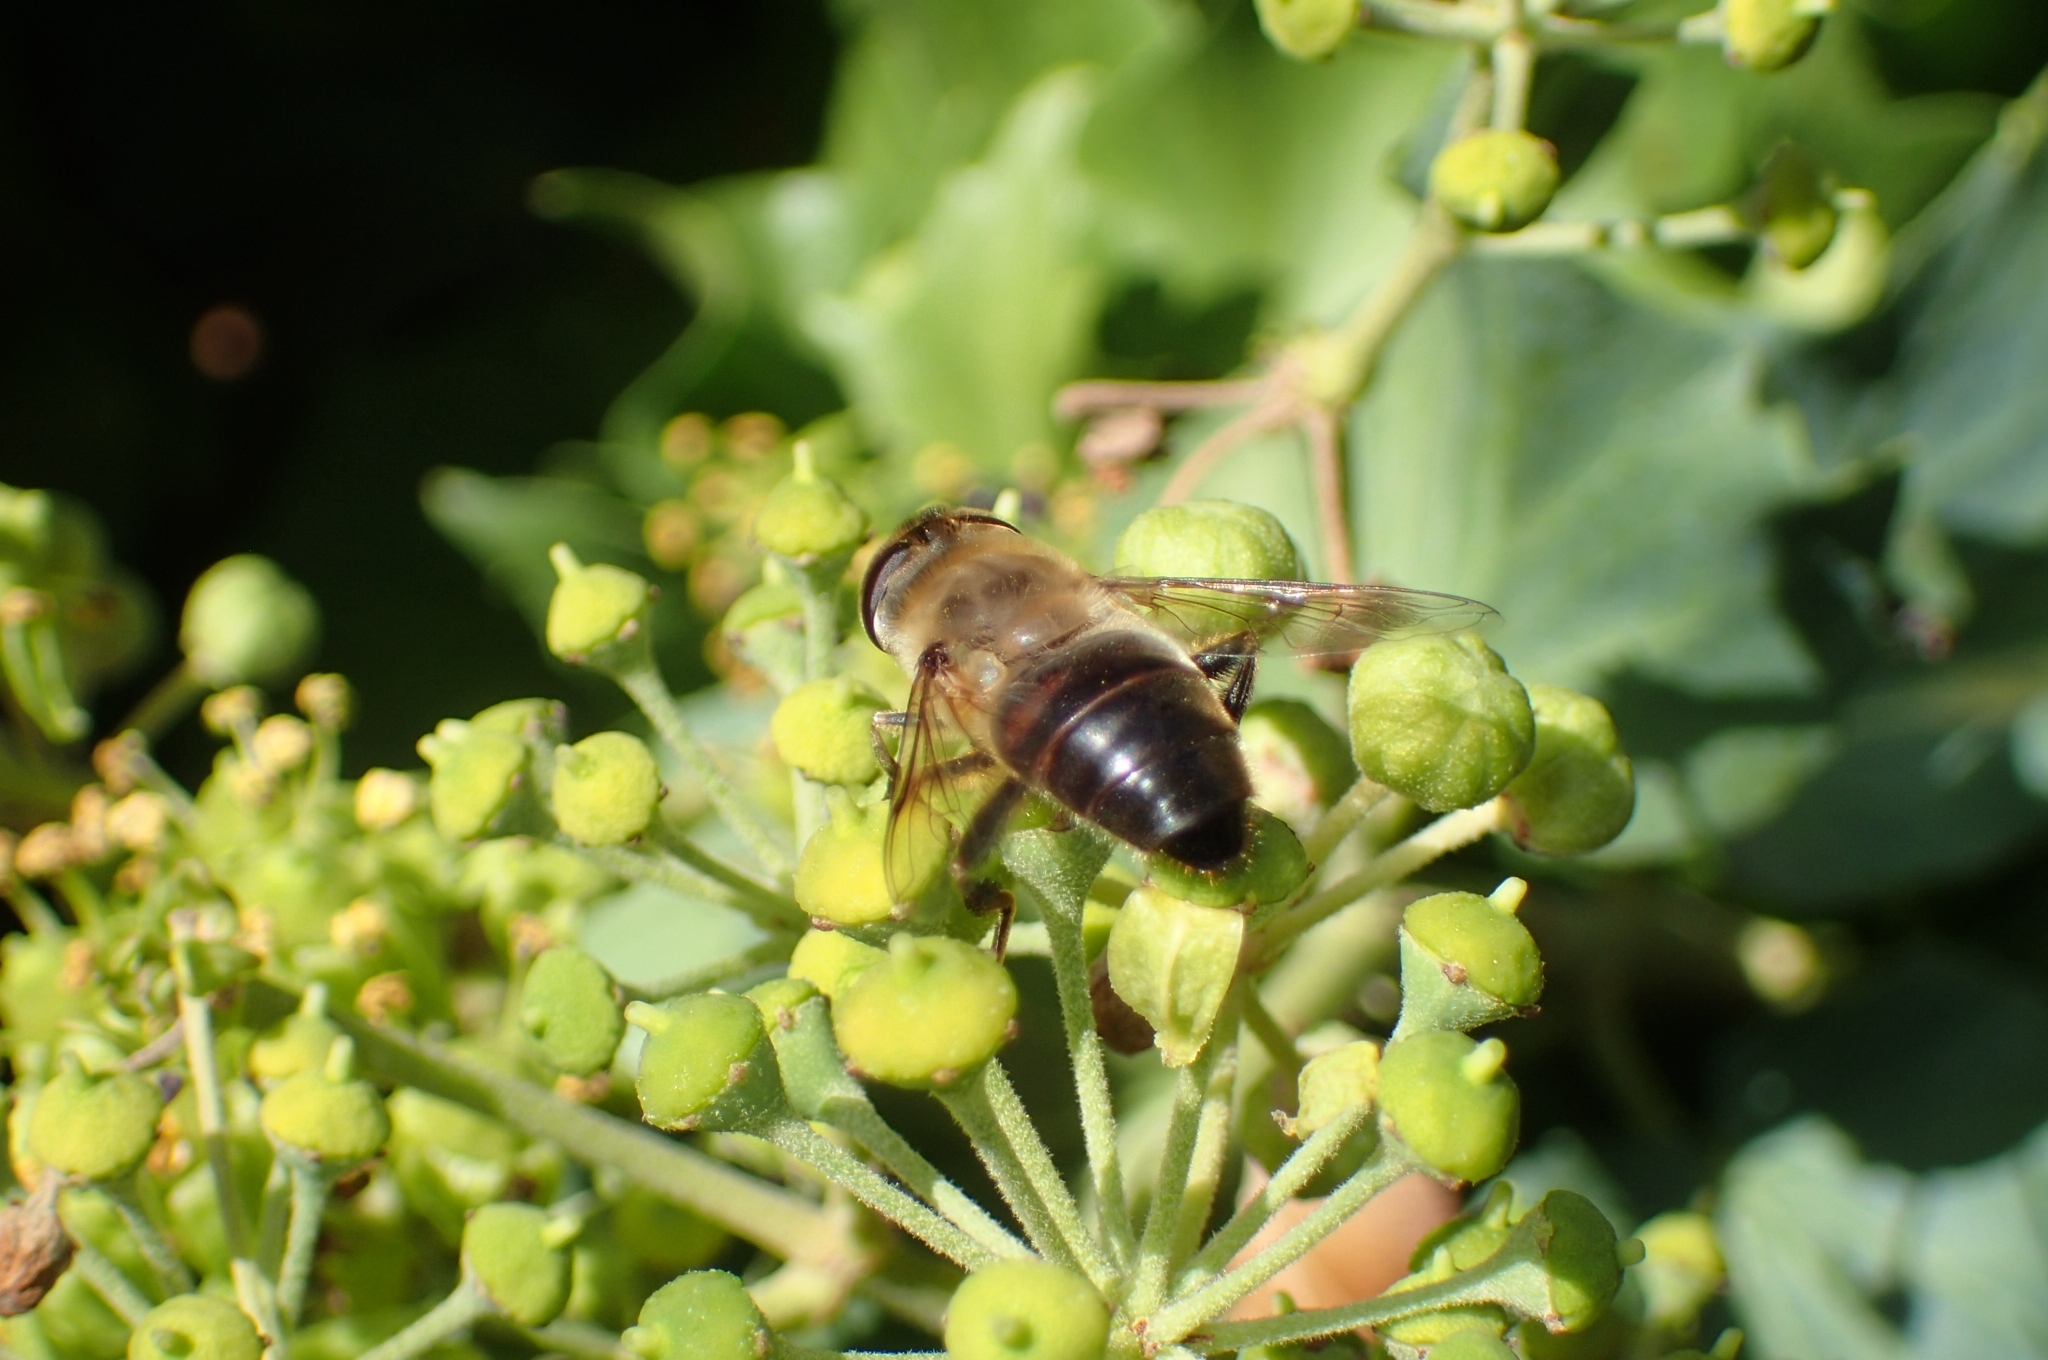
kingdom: Animalia
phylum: Arthropoda
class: Insecta
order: Diptera
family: Syrphidae
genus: Eristalis
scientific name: Eristalis tenax
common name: Drone fly
